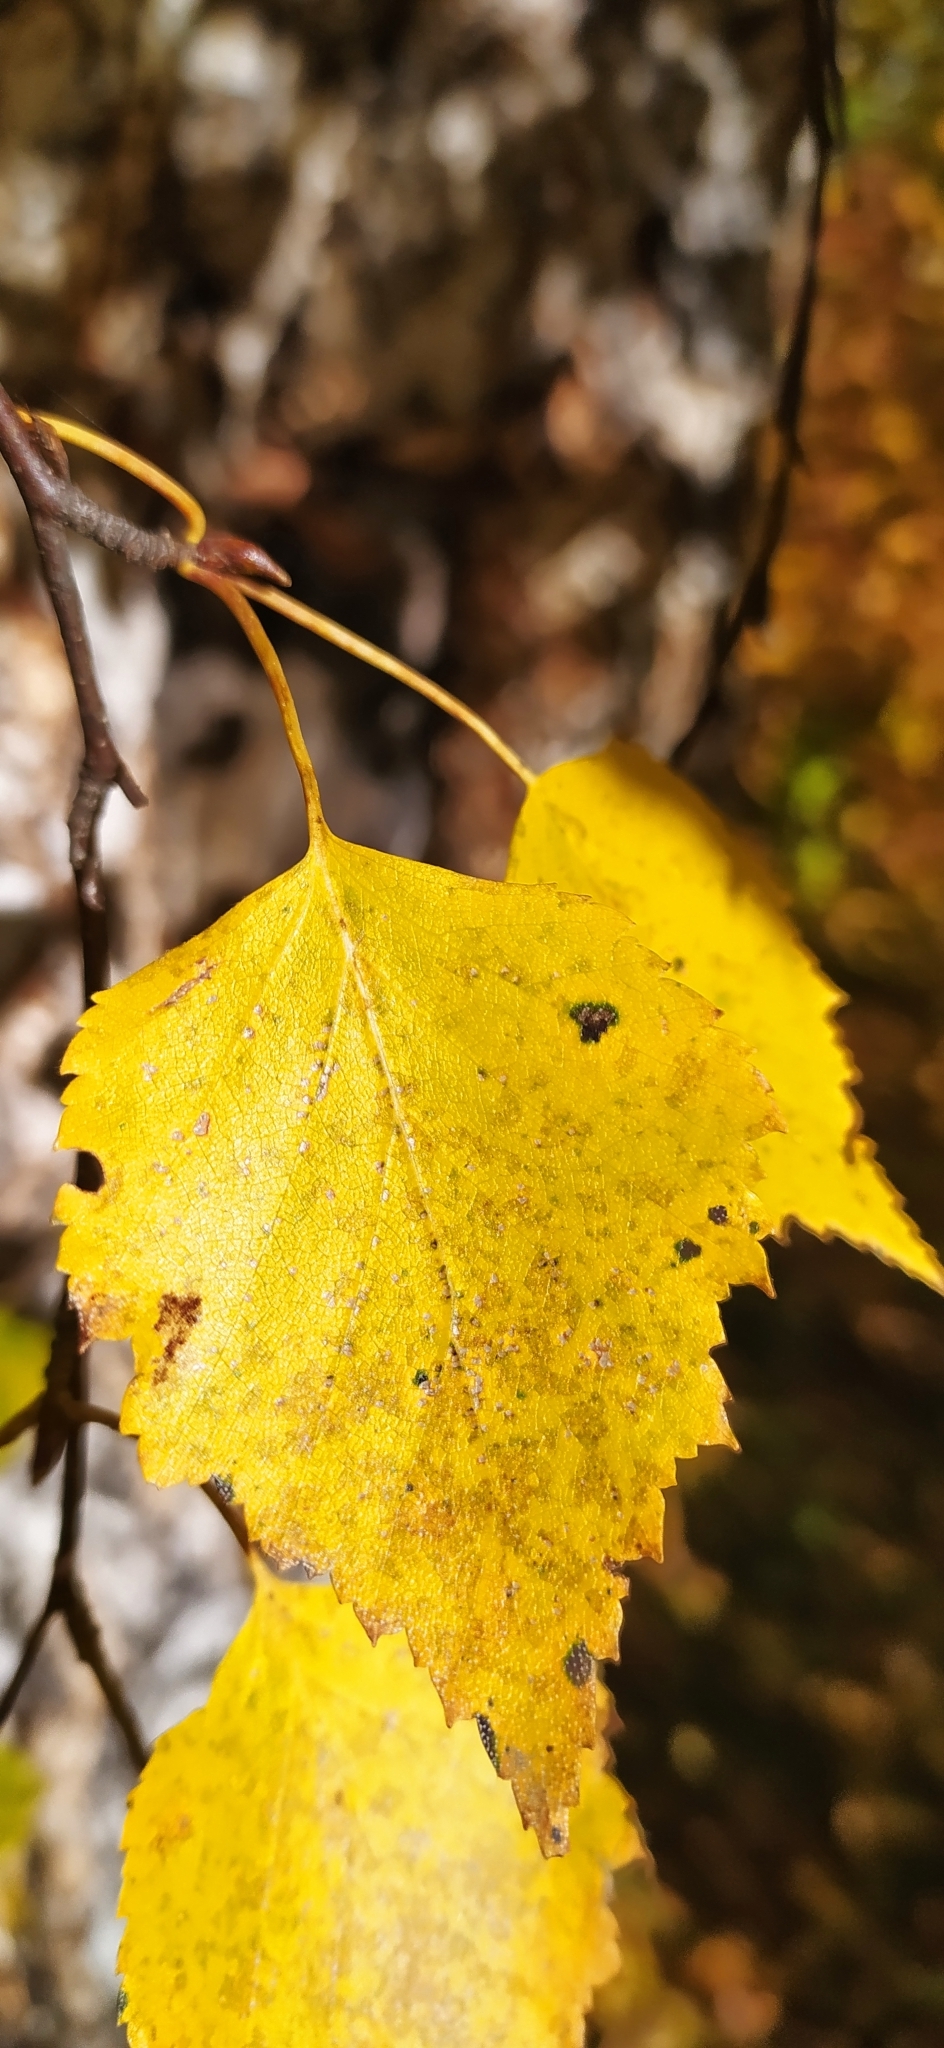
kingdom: Plantae
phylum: Tracheophyta
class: Magnoliopsida
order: Fagales
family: Betulaceae
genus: Betula
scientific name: Betula pendula
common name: Silver birch
